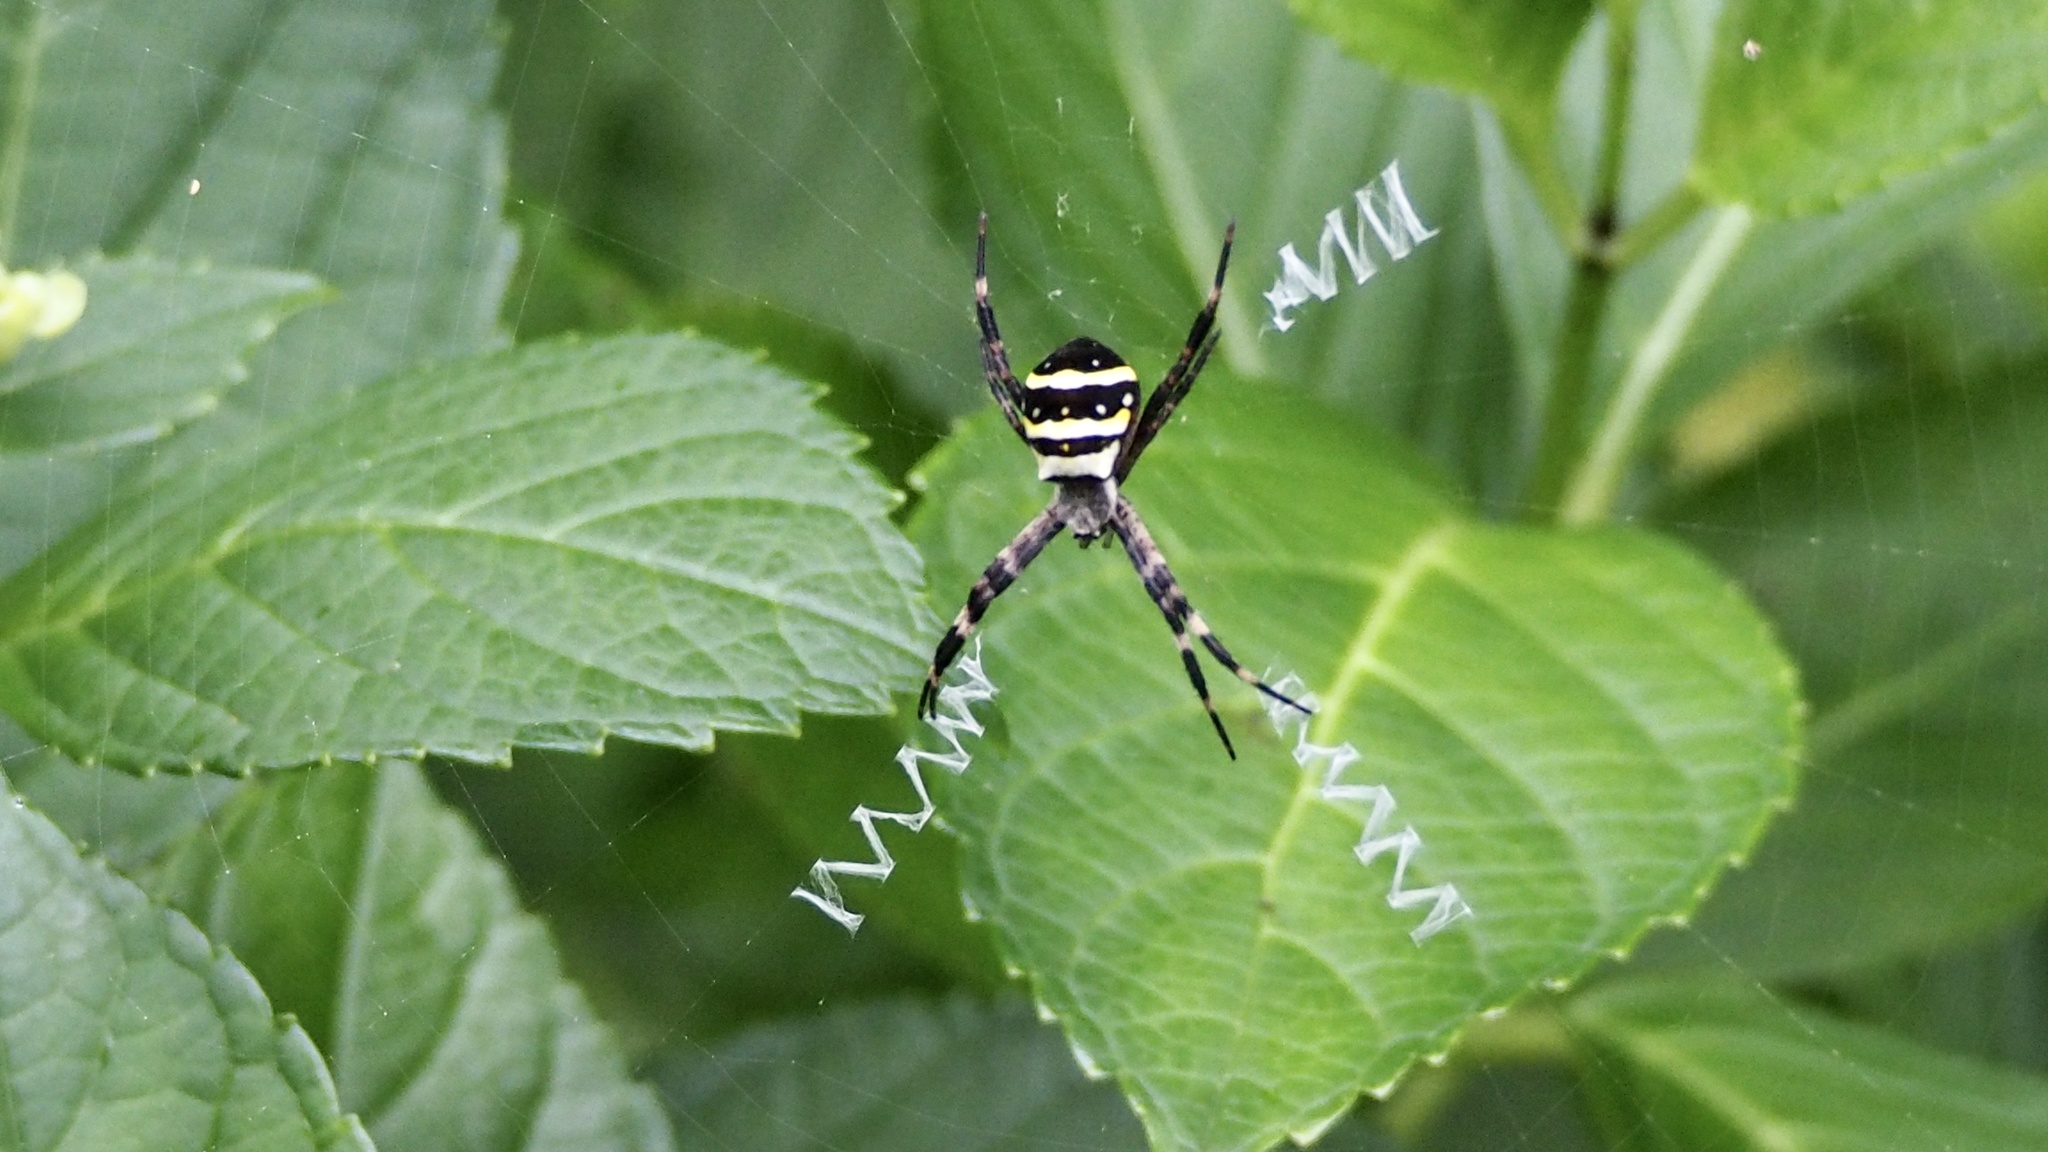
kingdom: Animalia
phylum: Arthropoda
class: Arachnida
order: Araneae
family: Araneidae
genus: Argiope
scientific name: Argiope amoena
